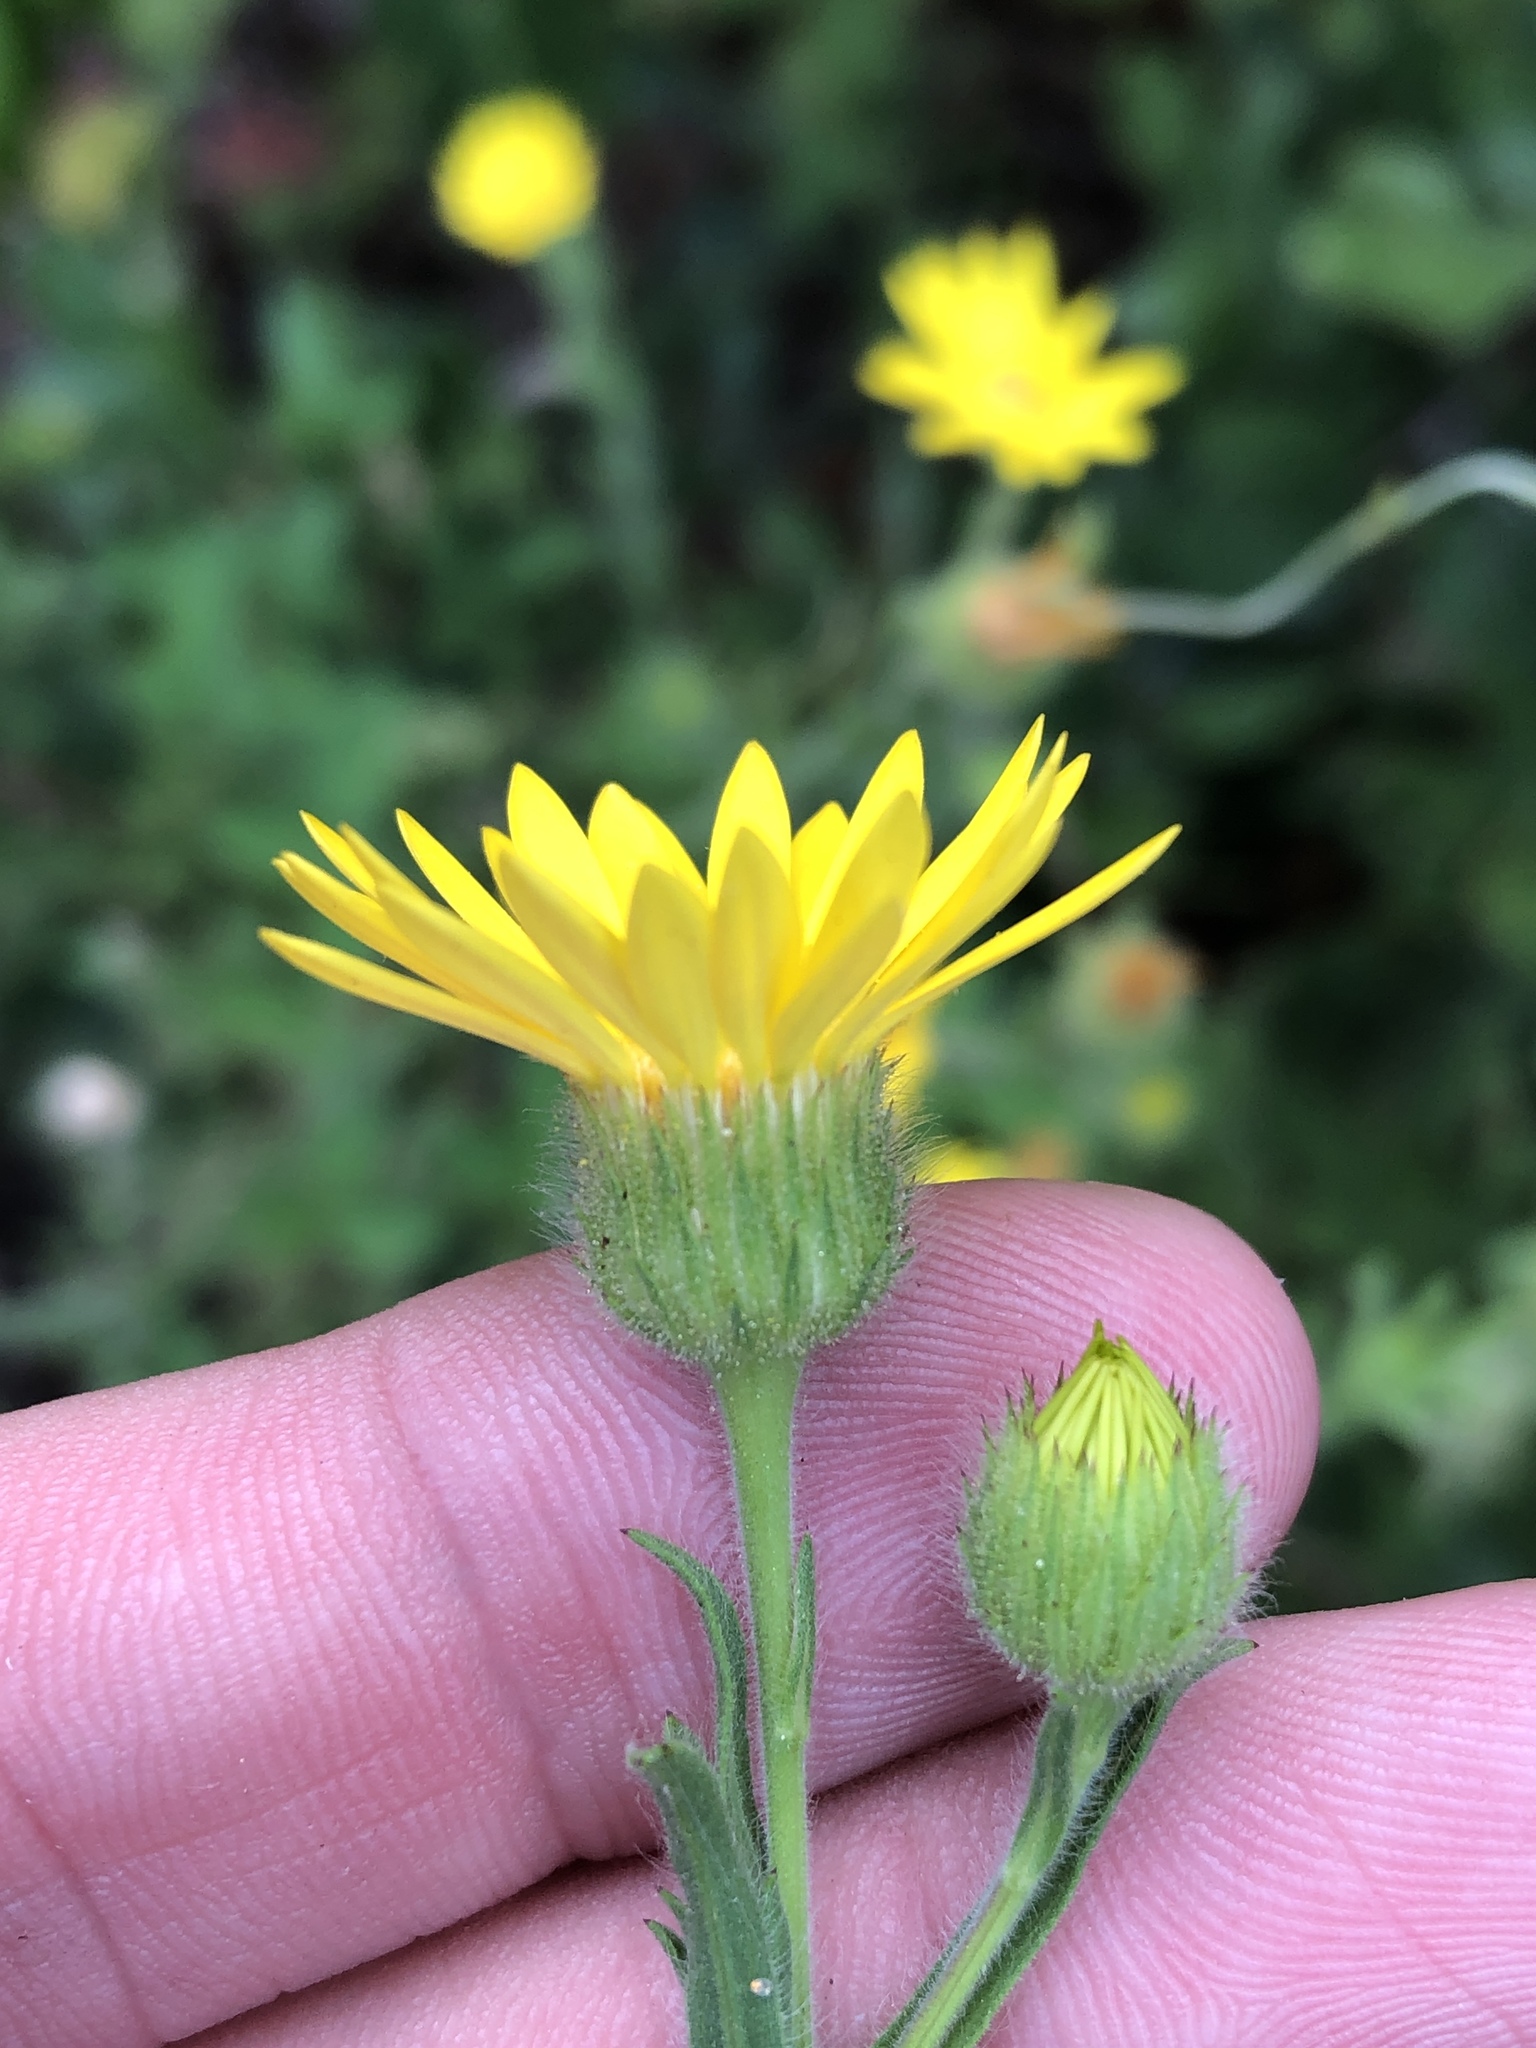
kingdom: Plantae
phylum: Tracheophyta
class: Magnoliopsida
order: Asterales
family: Asteraceae
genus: Bradburia
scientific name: Bradburia pilosa
